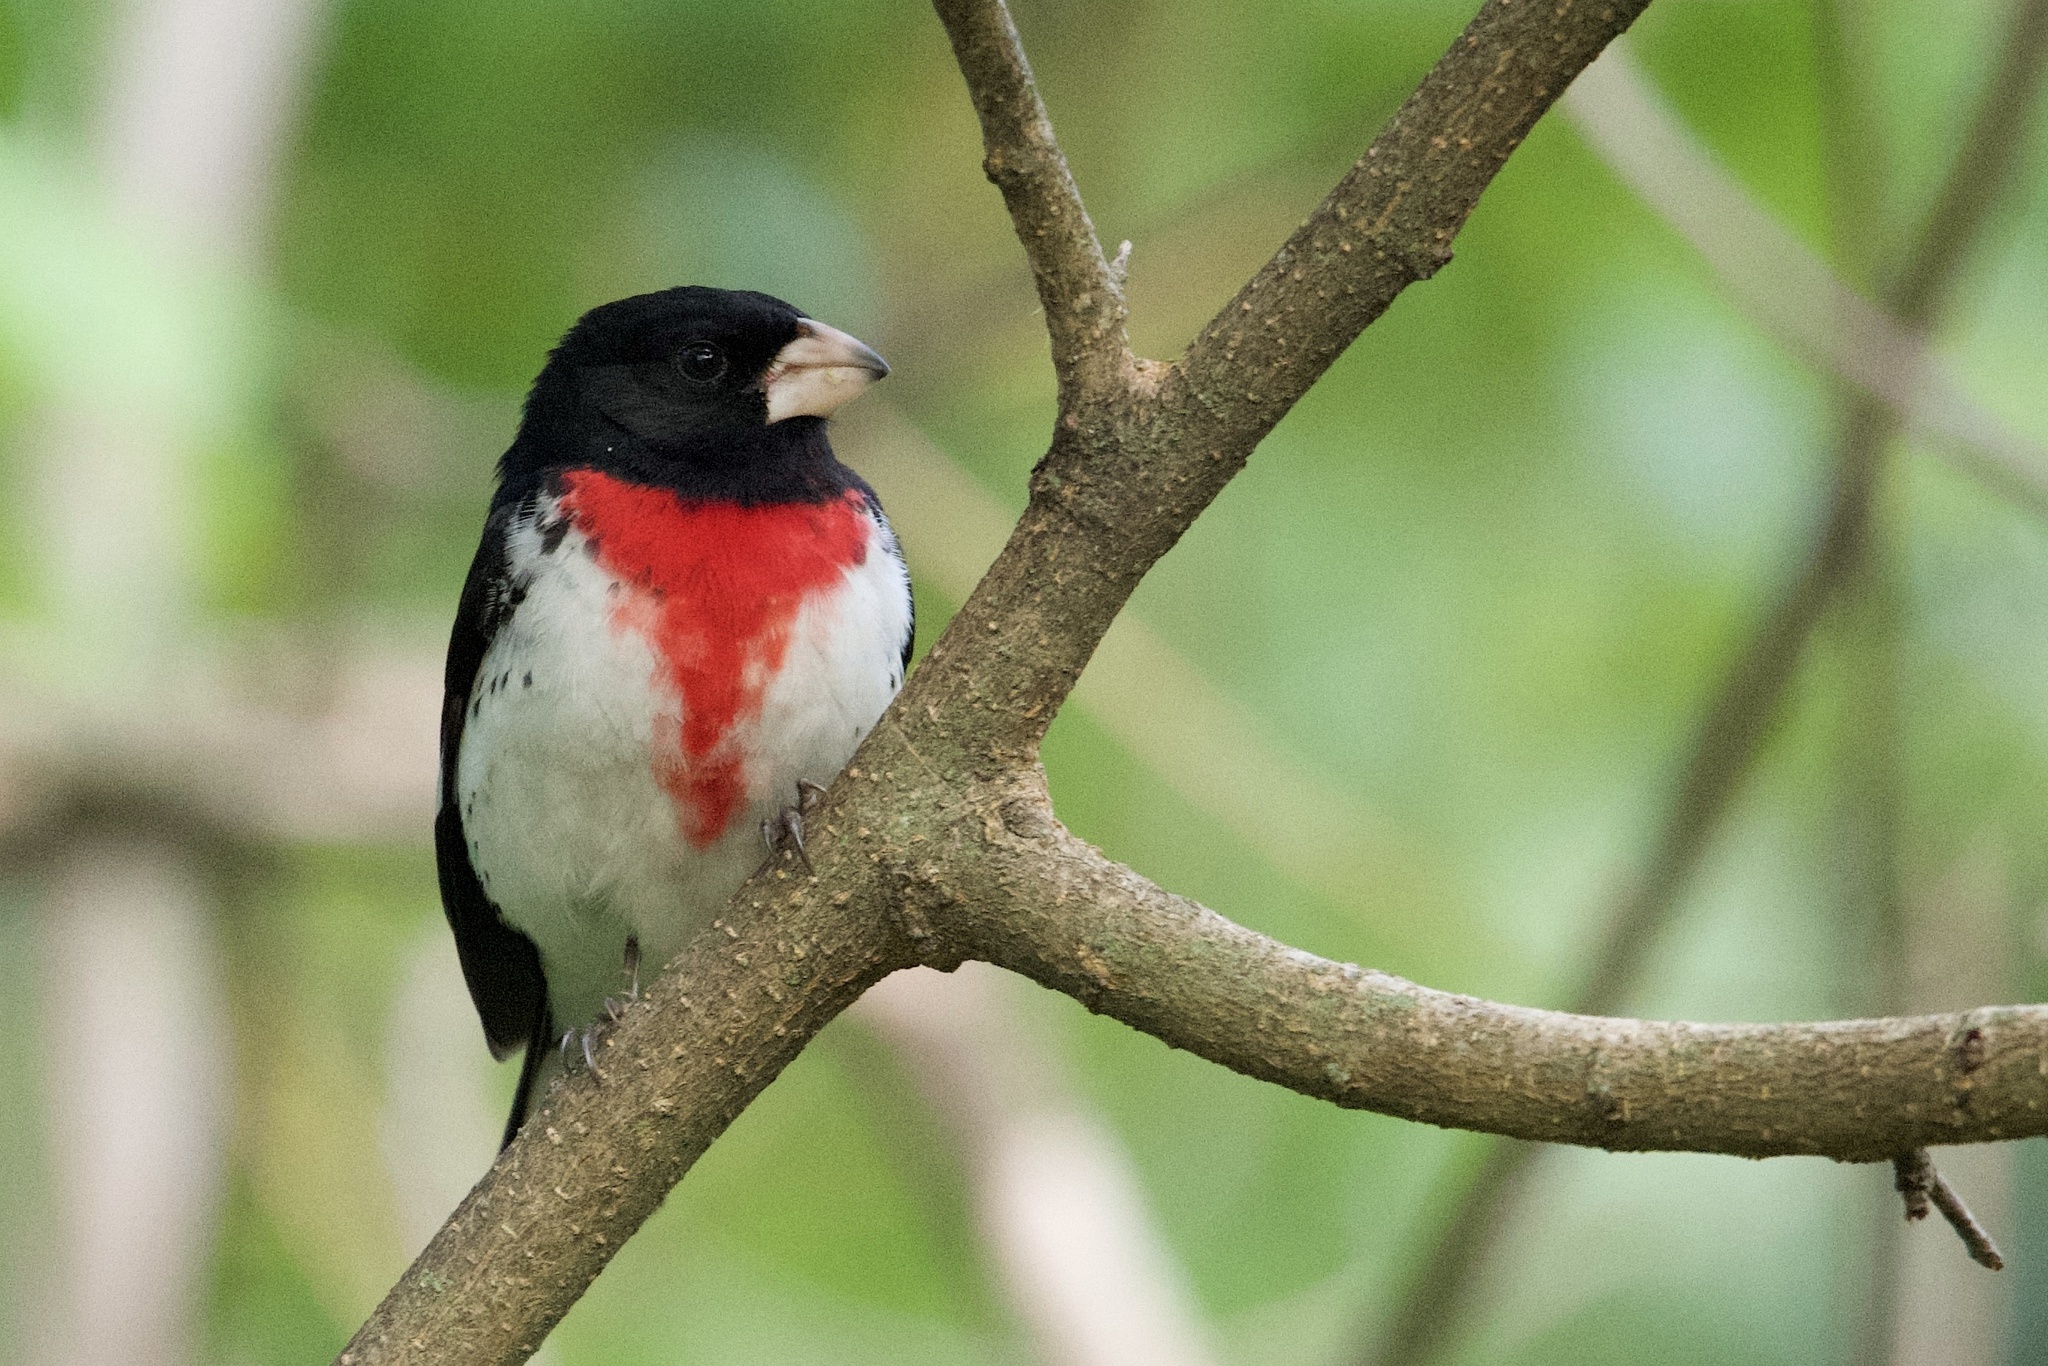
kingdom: Animalia
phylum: Chordata
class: Aves
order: Passeriformes
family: Cardinalidae
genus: Pheucticus
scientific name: Pheucticus ludovicianus
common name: Rose-breasted grosbeak
